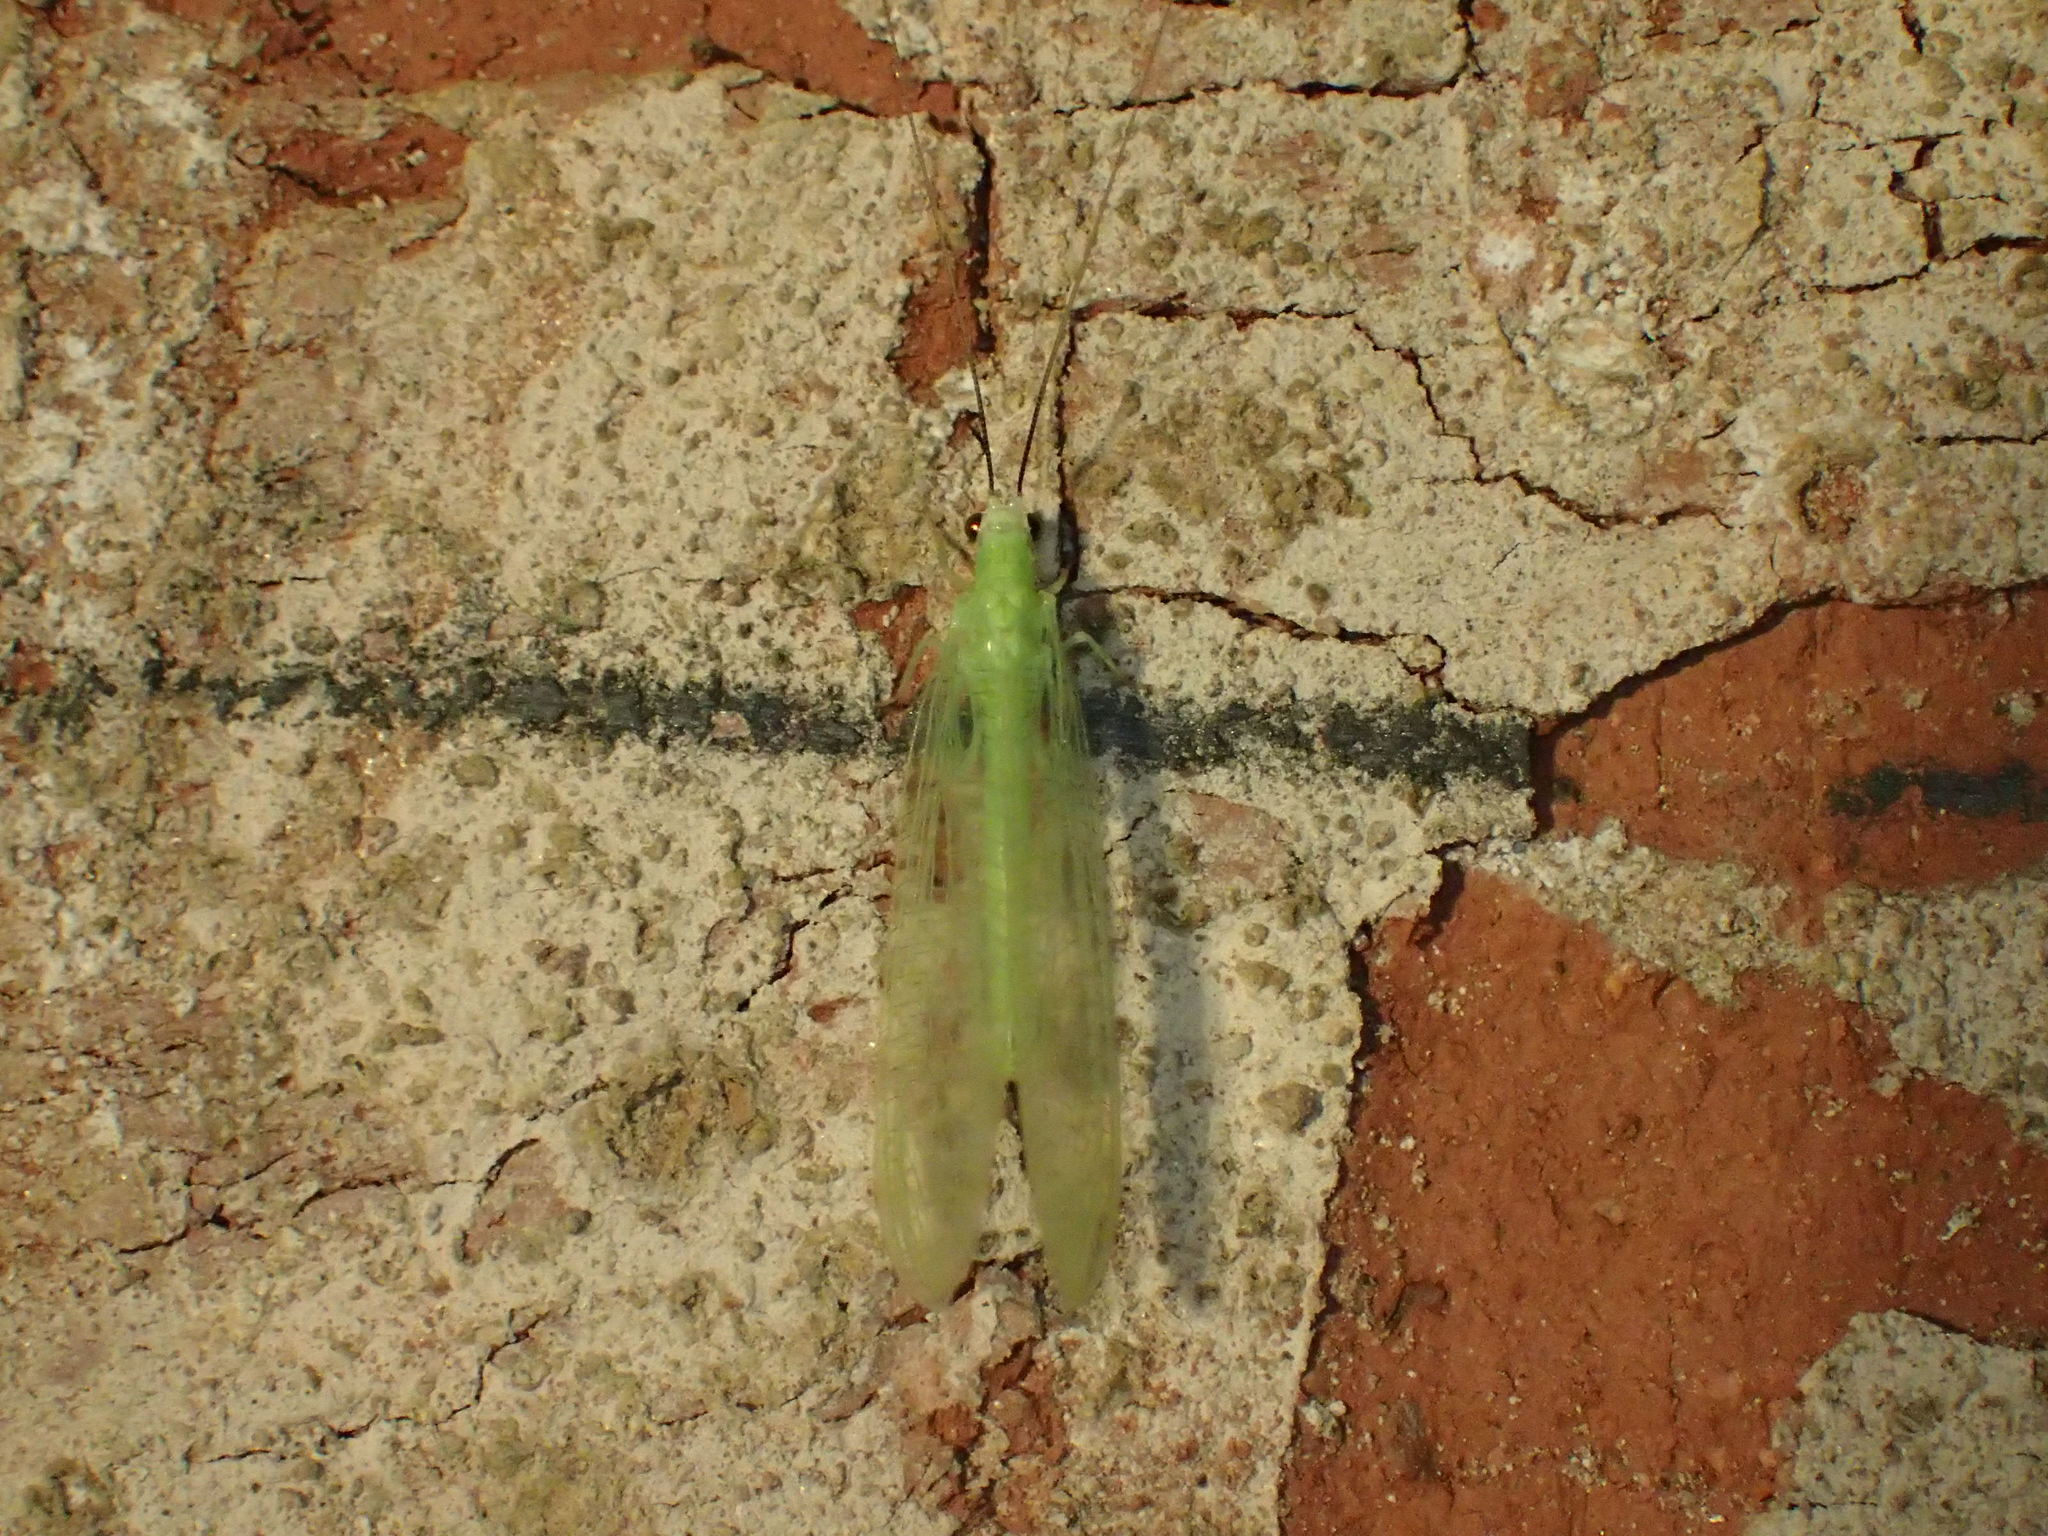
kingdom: Animalia
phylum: Arthropoda
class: Insecta
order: Neuroptera
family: Chrysopidae
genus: Chrysopa
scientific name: Chrysopa nigricornis
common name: Black-horned green lacewing
